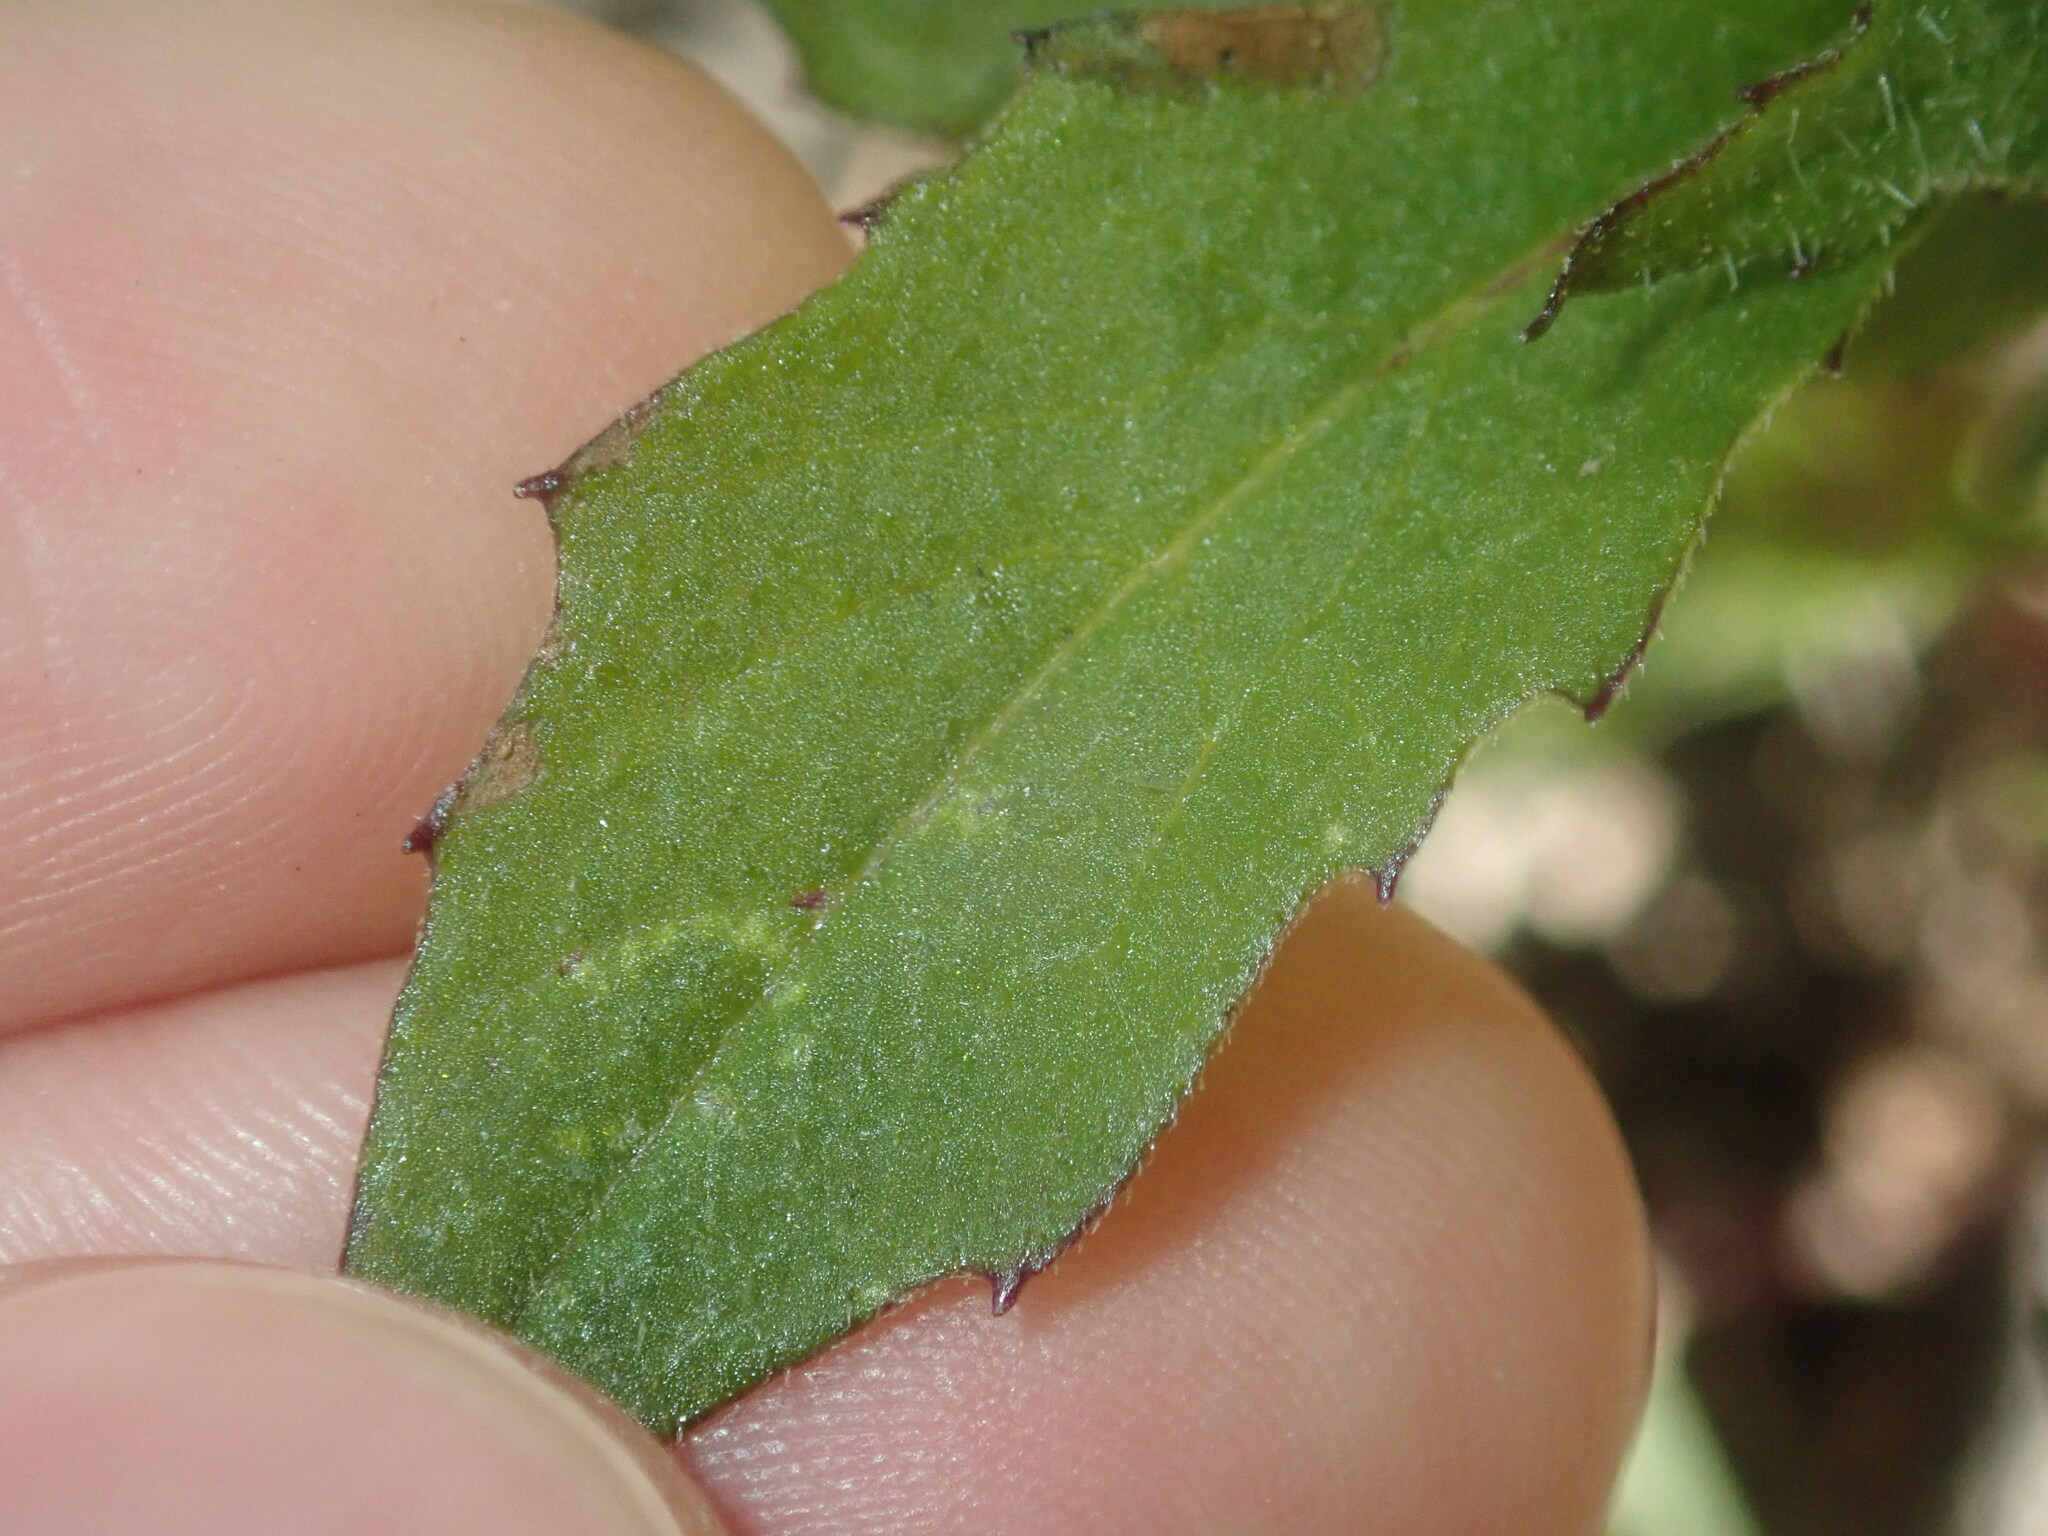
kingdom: Plantae
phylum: Tracheophyta
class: Magnoliopsida
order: Asterales
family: Asteraceae
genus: Crassocephalum
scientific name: Crassocephalum crepidioides
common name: Redflower ragleaf
